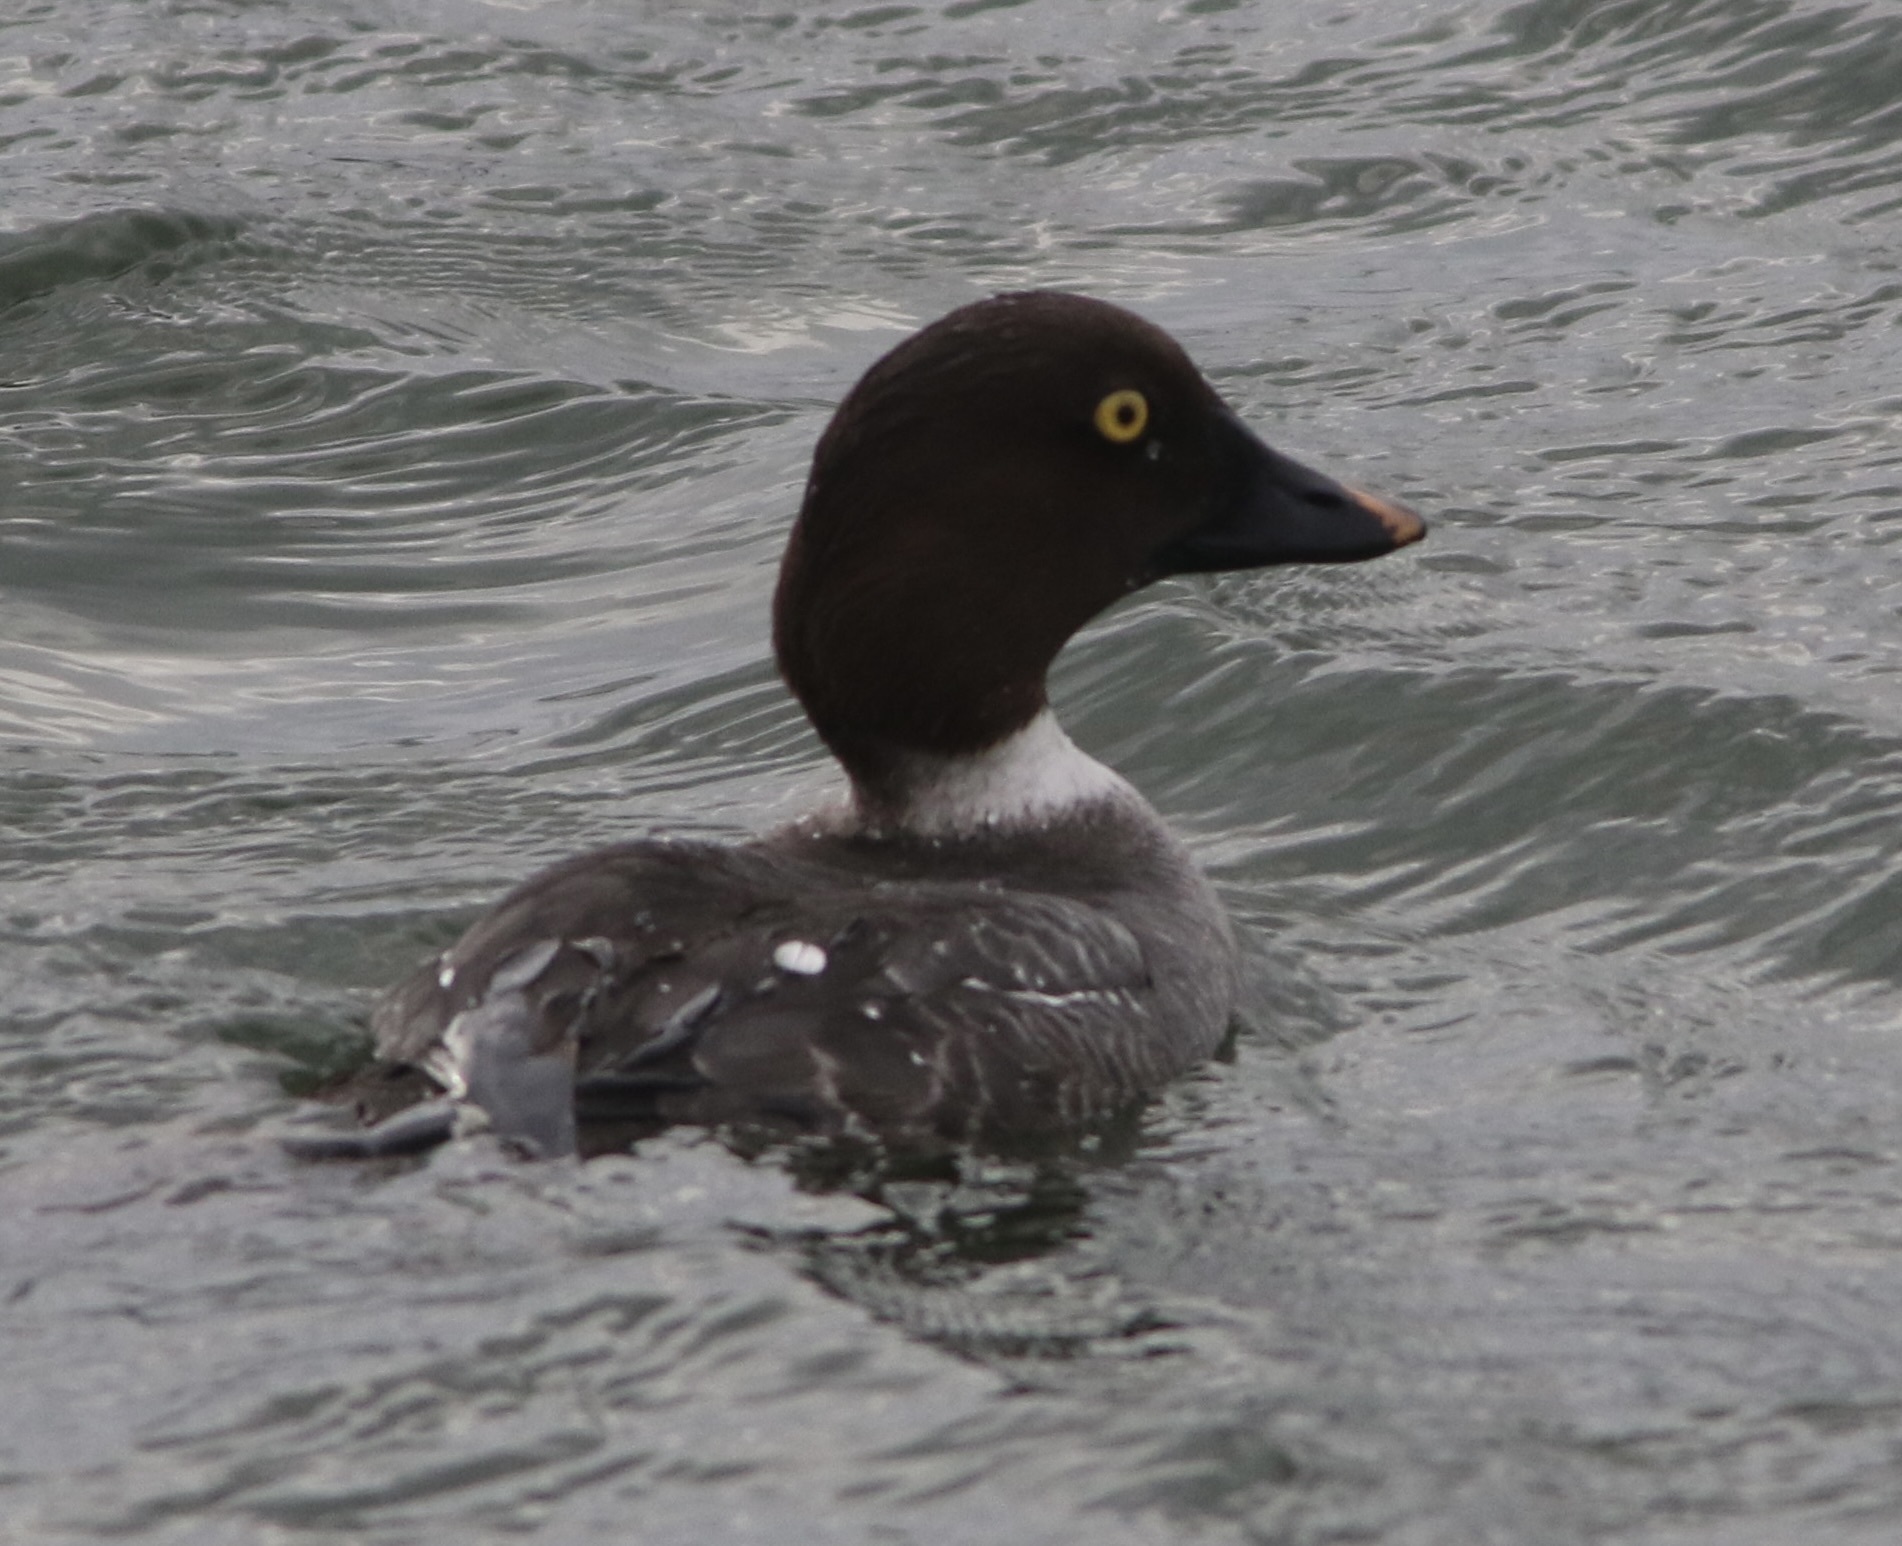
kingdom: Animalia
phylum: Chordata
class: Aves
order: Anseriformes
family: Anatidae
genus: Bucephala
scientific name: Bucephala clangula
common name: Common goldeneye
